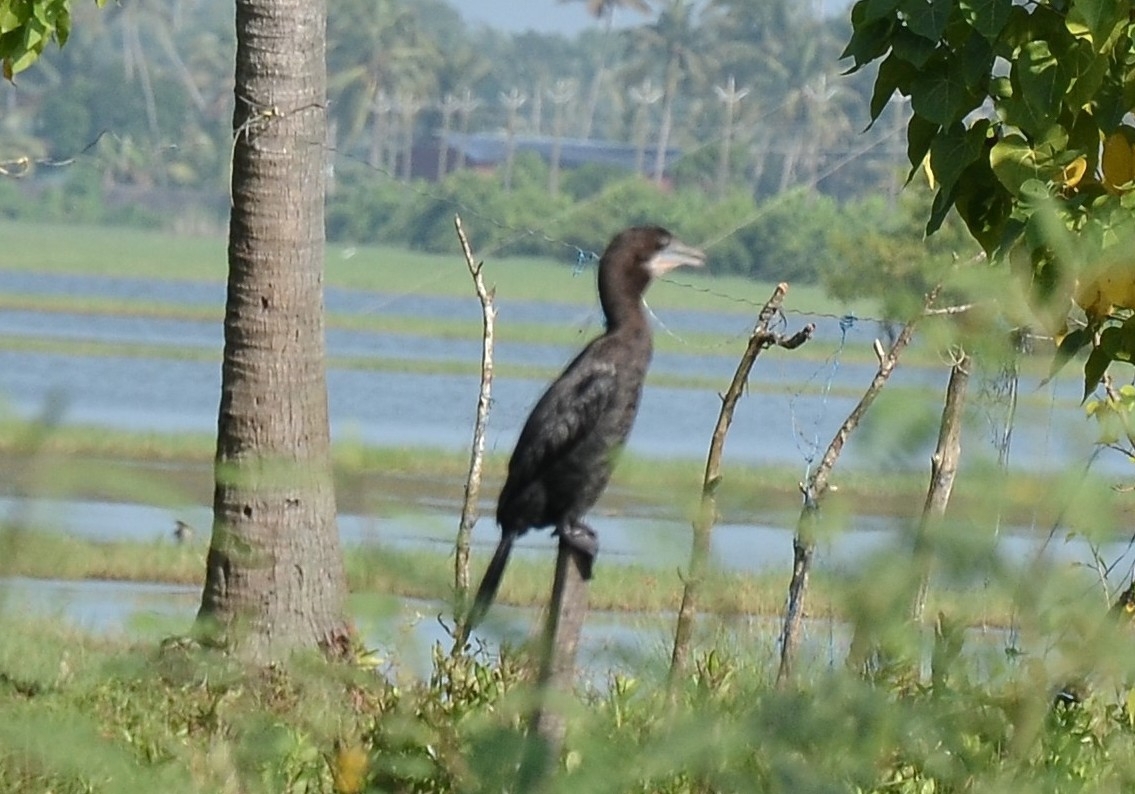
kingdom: Animalia
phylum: Chordata
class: Aves
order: Suliformes
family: Phalacrocoracidae
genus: Microcarbo
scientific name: Microcarbo niger
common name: Little cormorant
